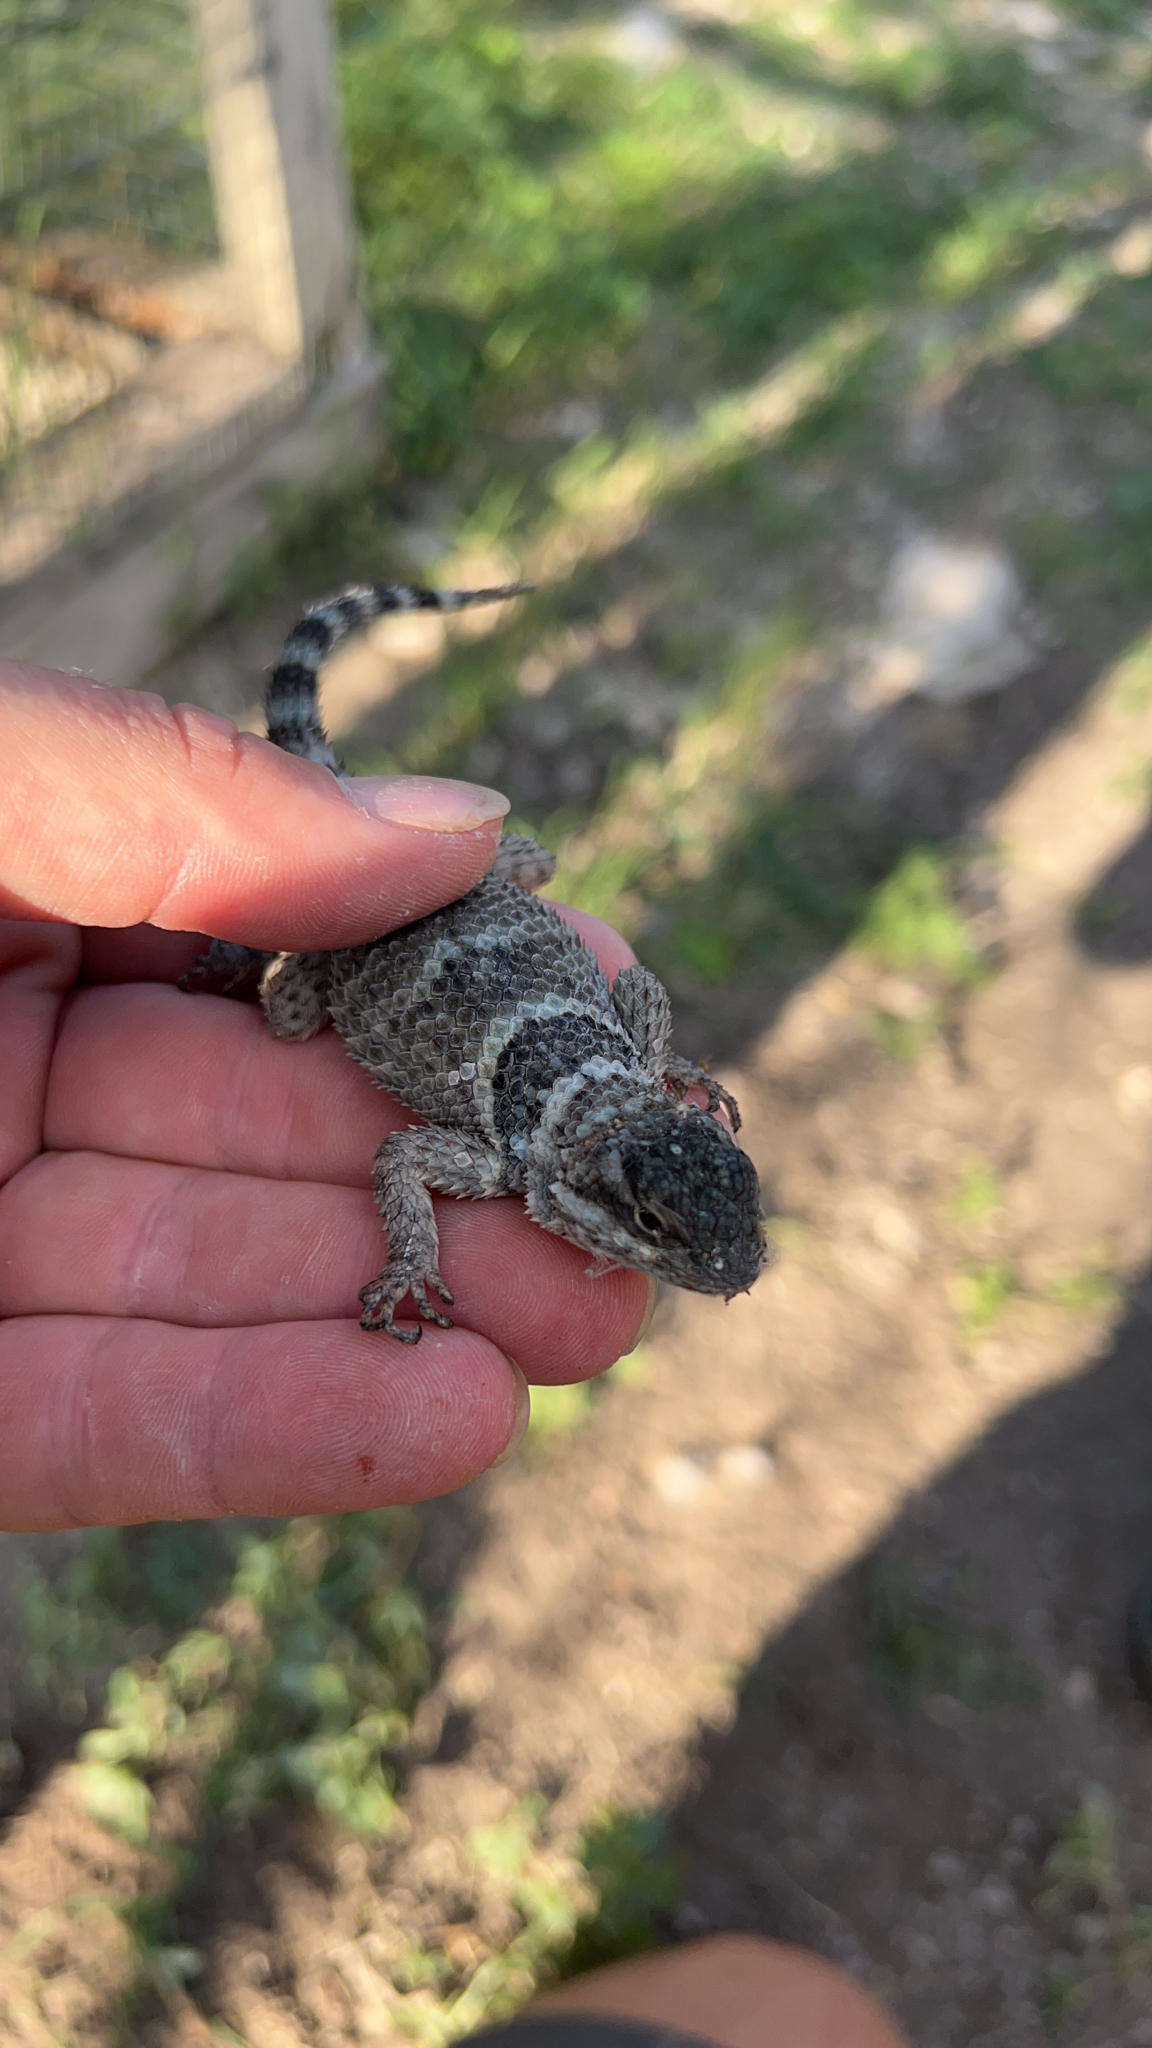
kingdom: Animalia
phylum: Chordata
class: Squamata
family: Phrynosomatidae
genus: Sceloporus
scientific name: Sceloporus poinsettii
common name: Crevice spiny lizard
